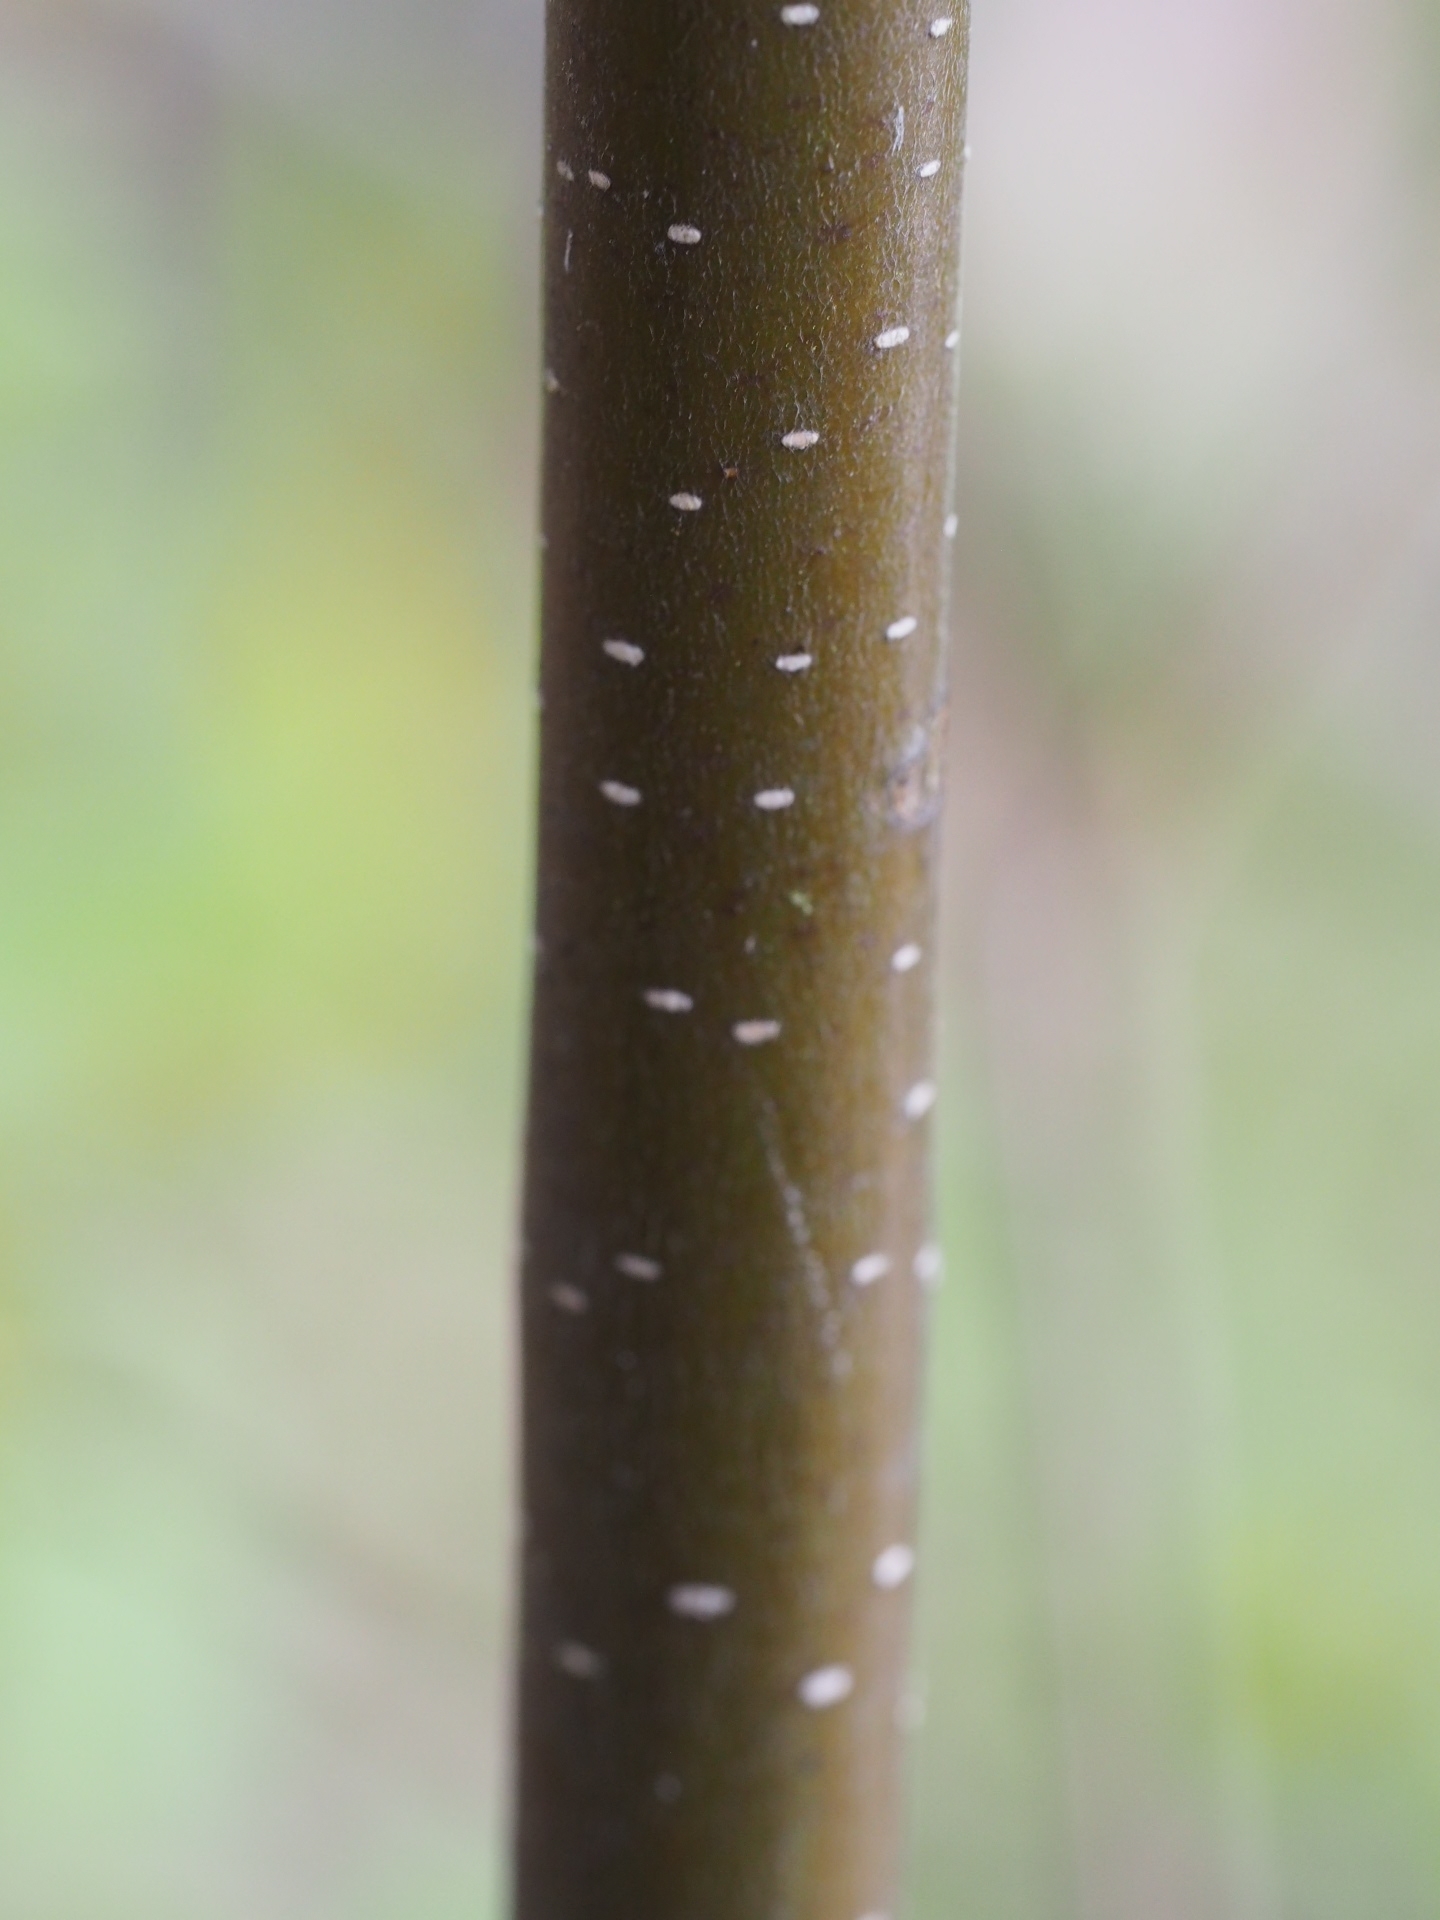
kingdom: Plantae
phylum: Tracheophyta
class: Magnoliopsida
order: Fagales
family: Betulaceae
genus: Betula
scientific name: Betula lenta
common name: Black birch
